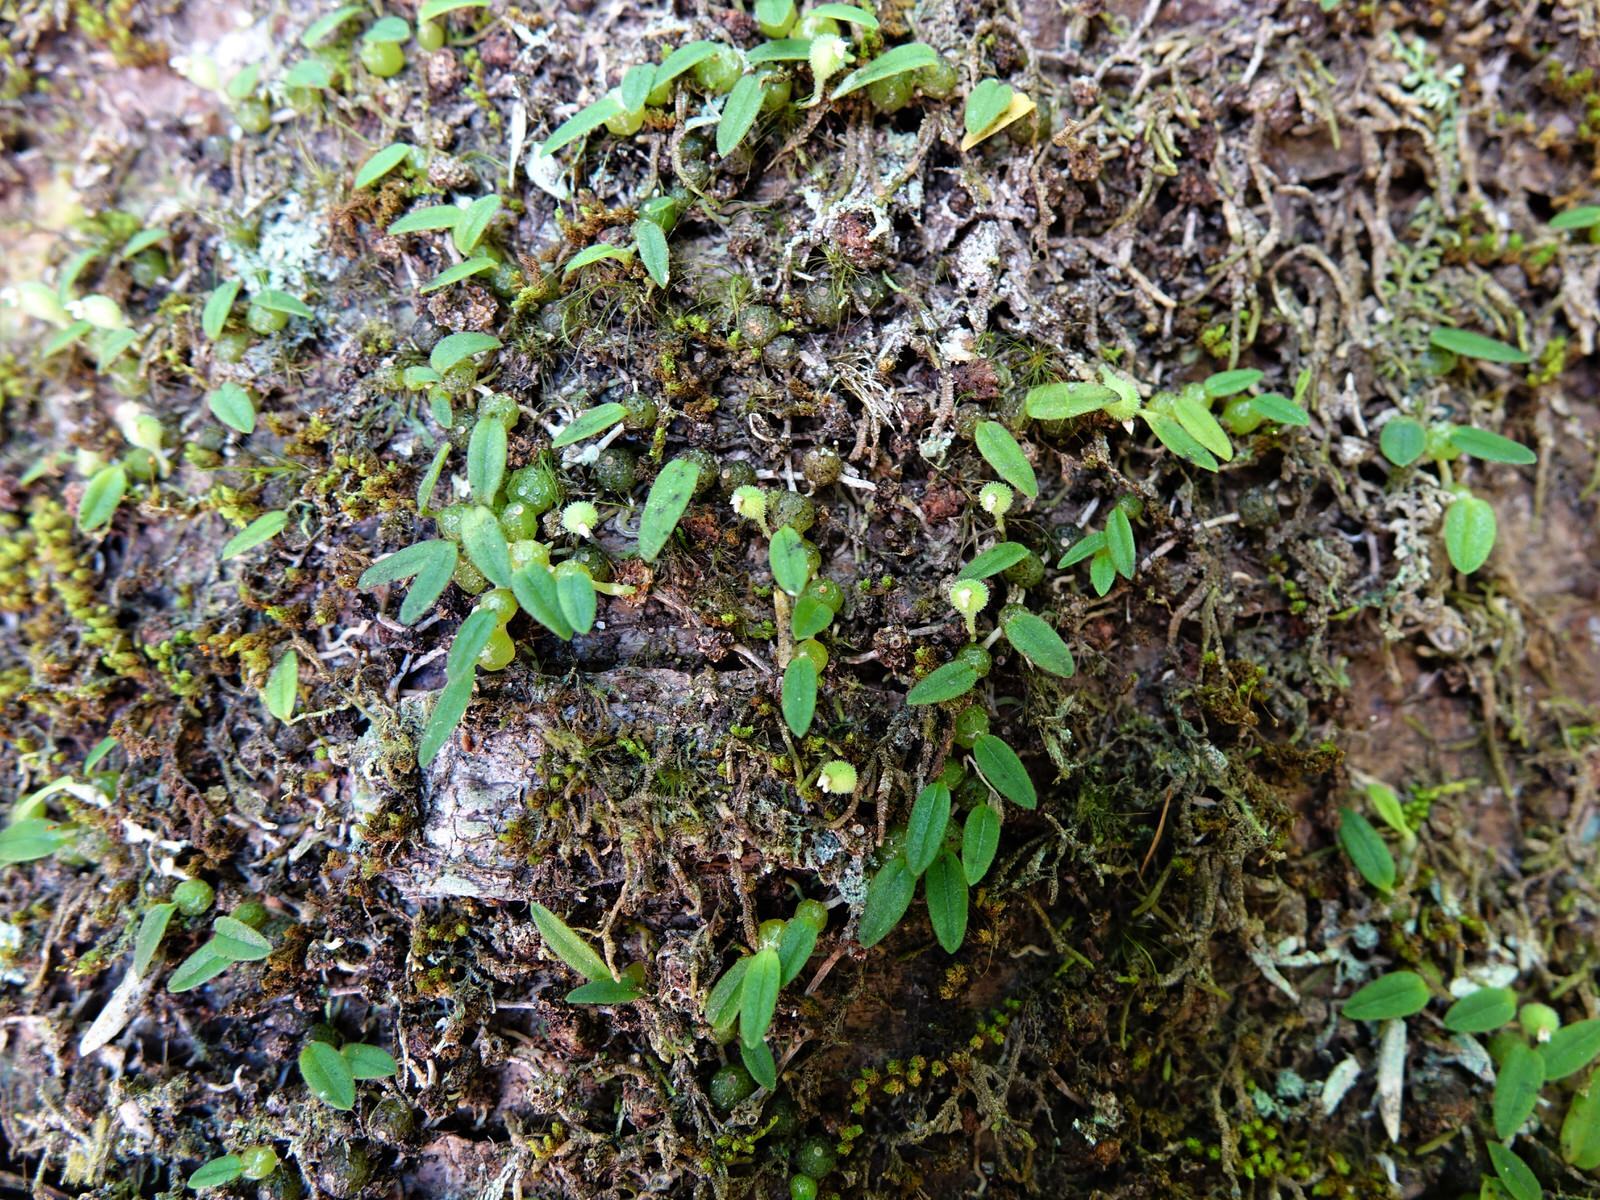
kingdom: Plantae
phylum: Tracheophyta
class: Liliopsida
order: Asparagales
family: Orchidaceae
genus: Bulbophyllum
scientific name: Bulbophyllum pygmaeum
